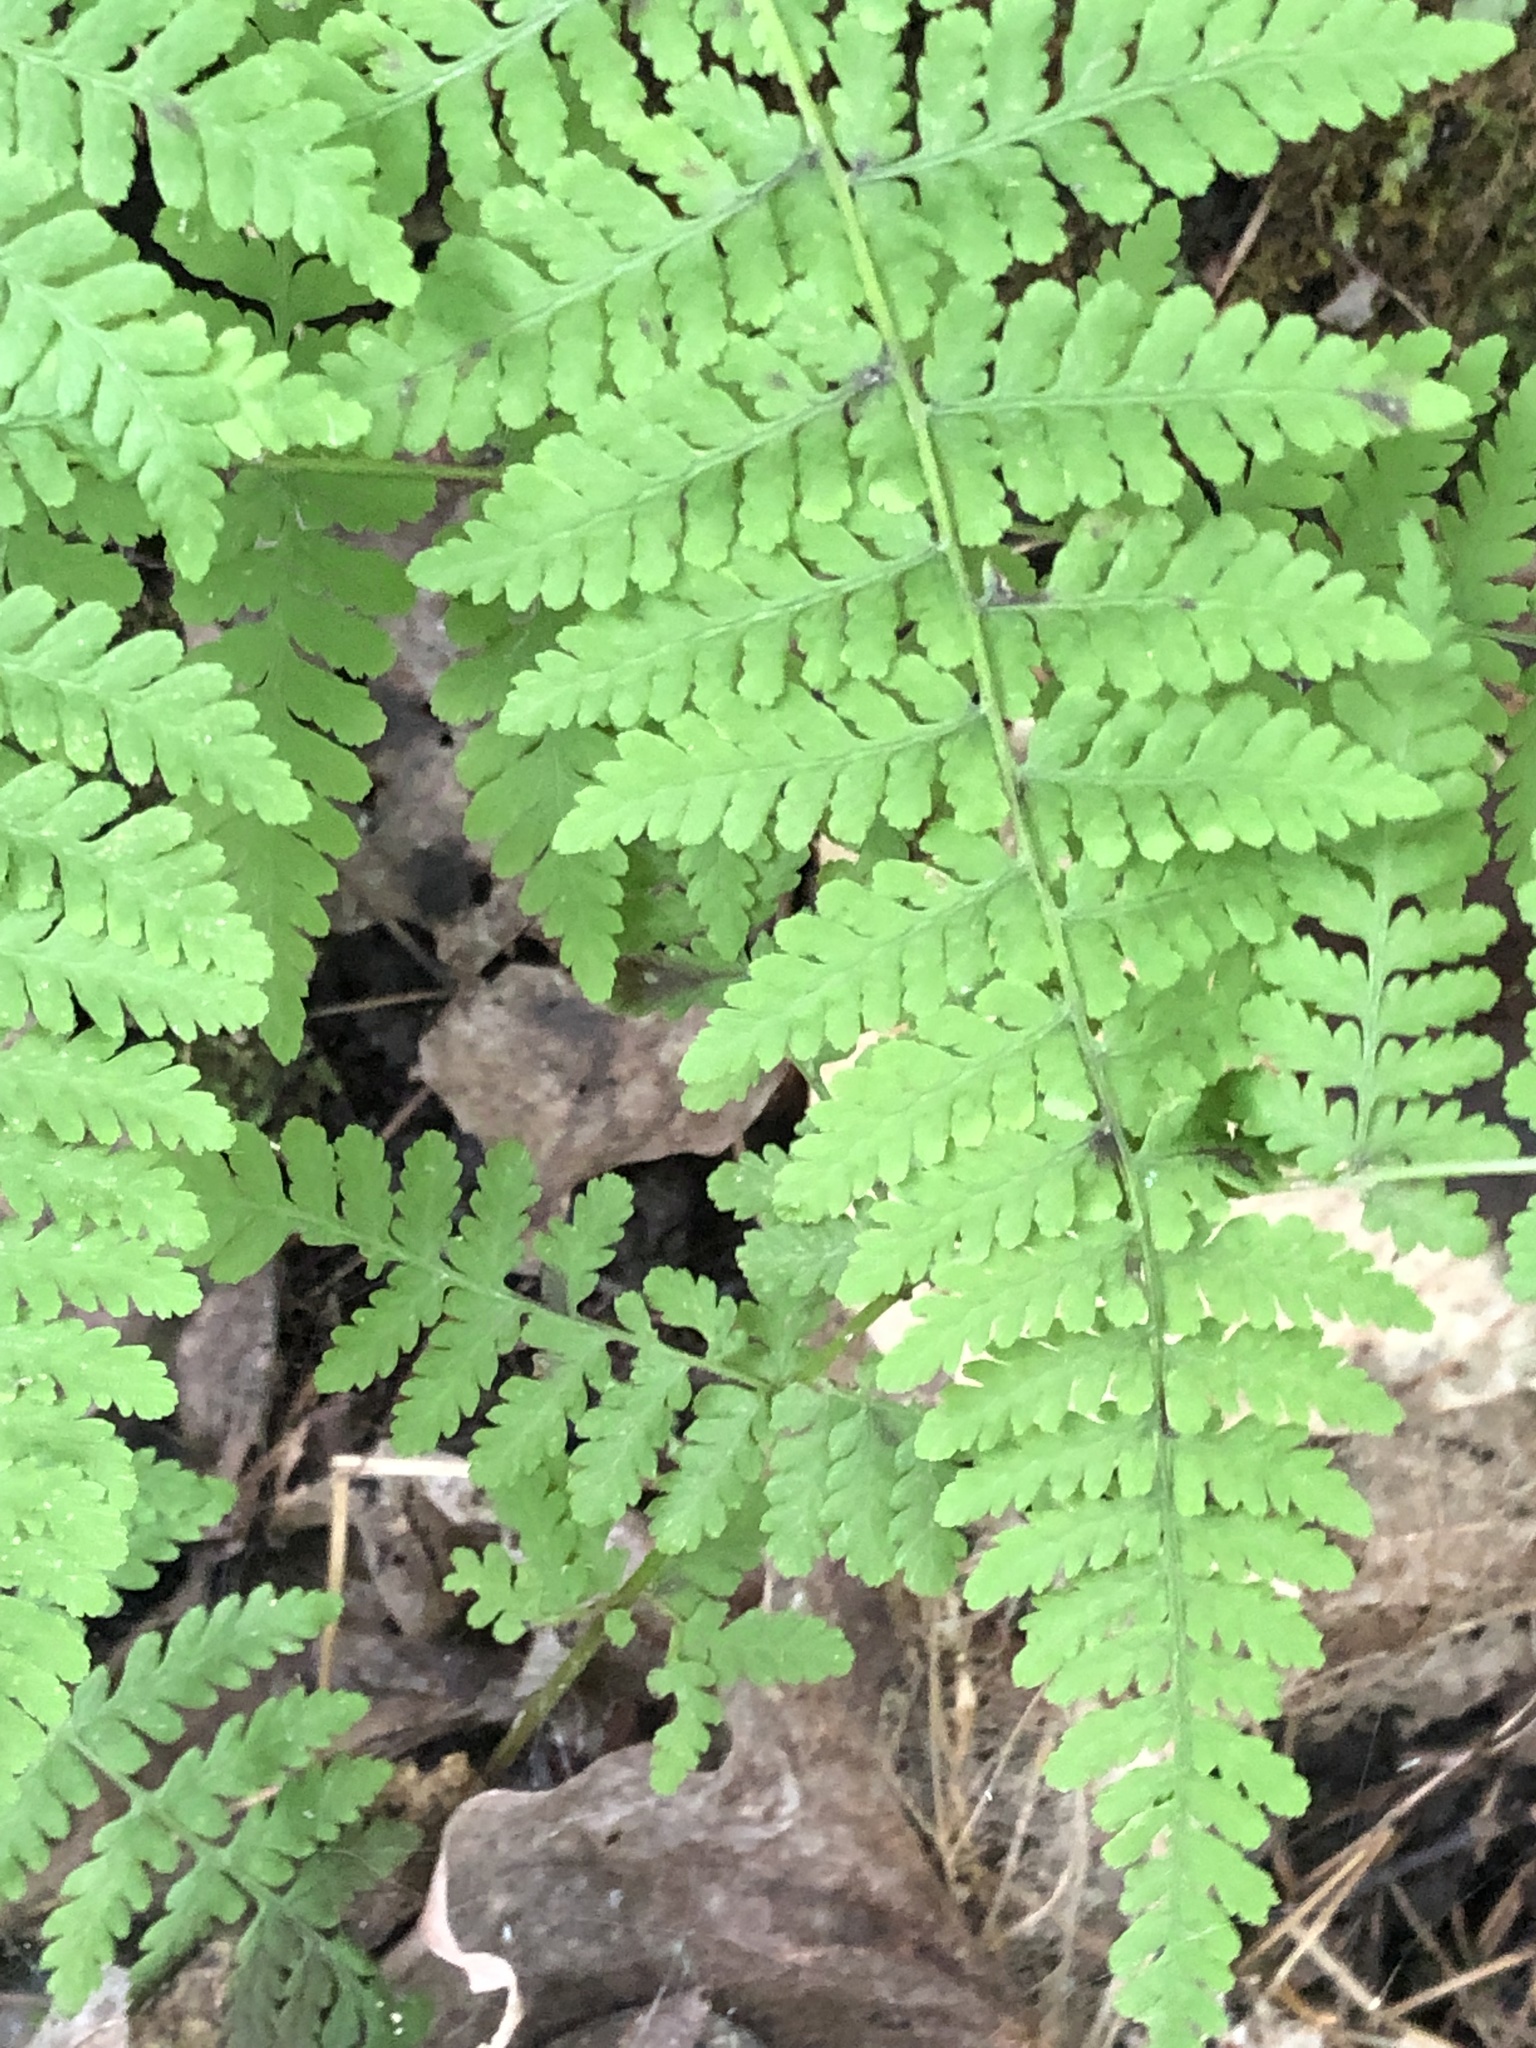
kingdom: Plantae
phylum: Tracheophyta
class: Polypodiopsida
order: Polypodiales
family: Cystopteridaceae
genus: Cystopteris
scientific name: Cystopteris bulbifera
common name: Bulblet bladder fern
